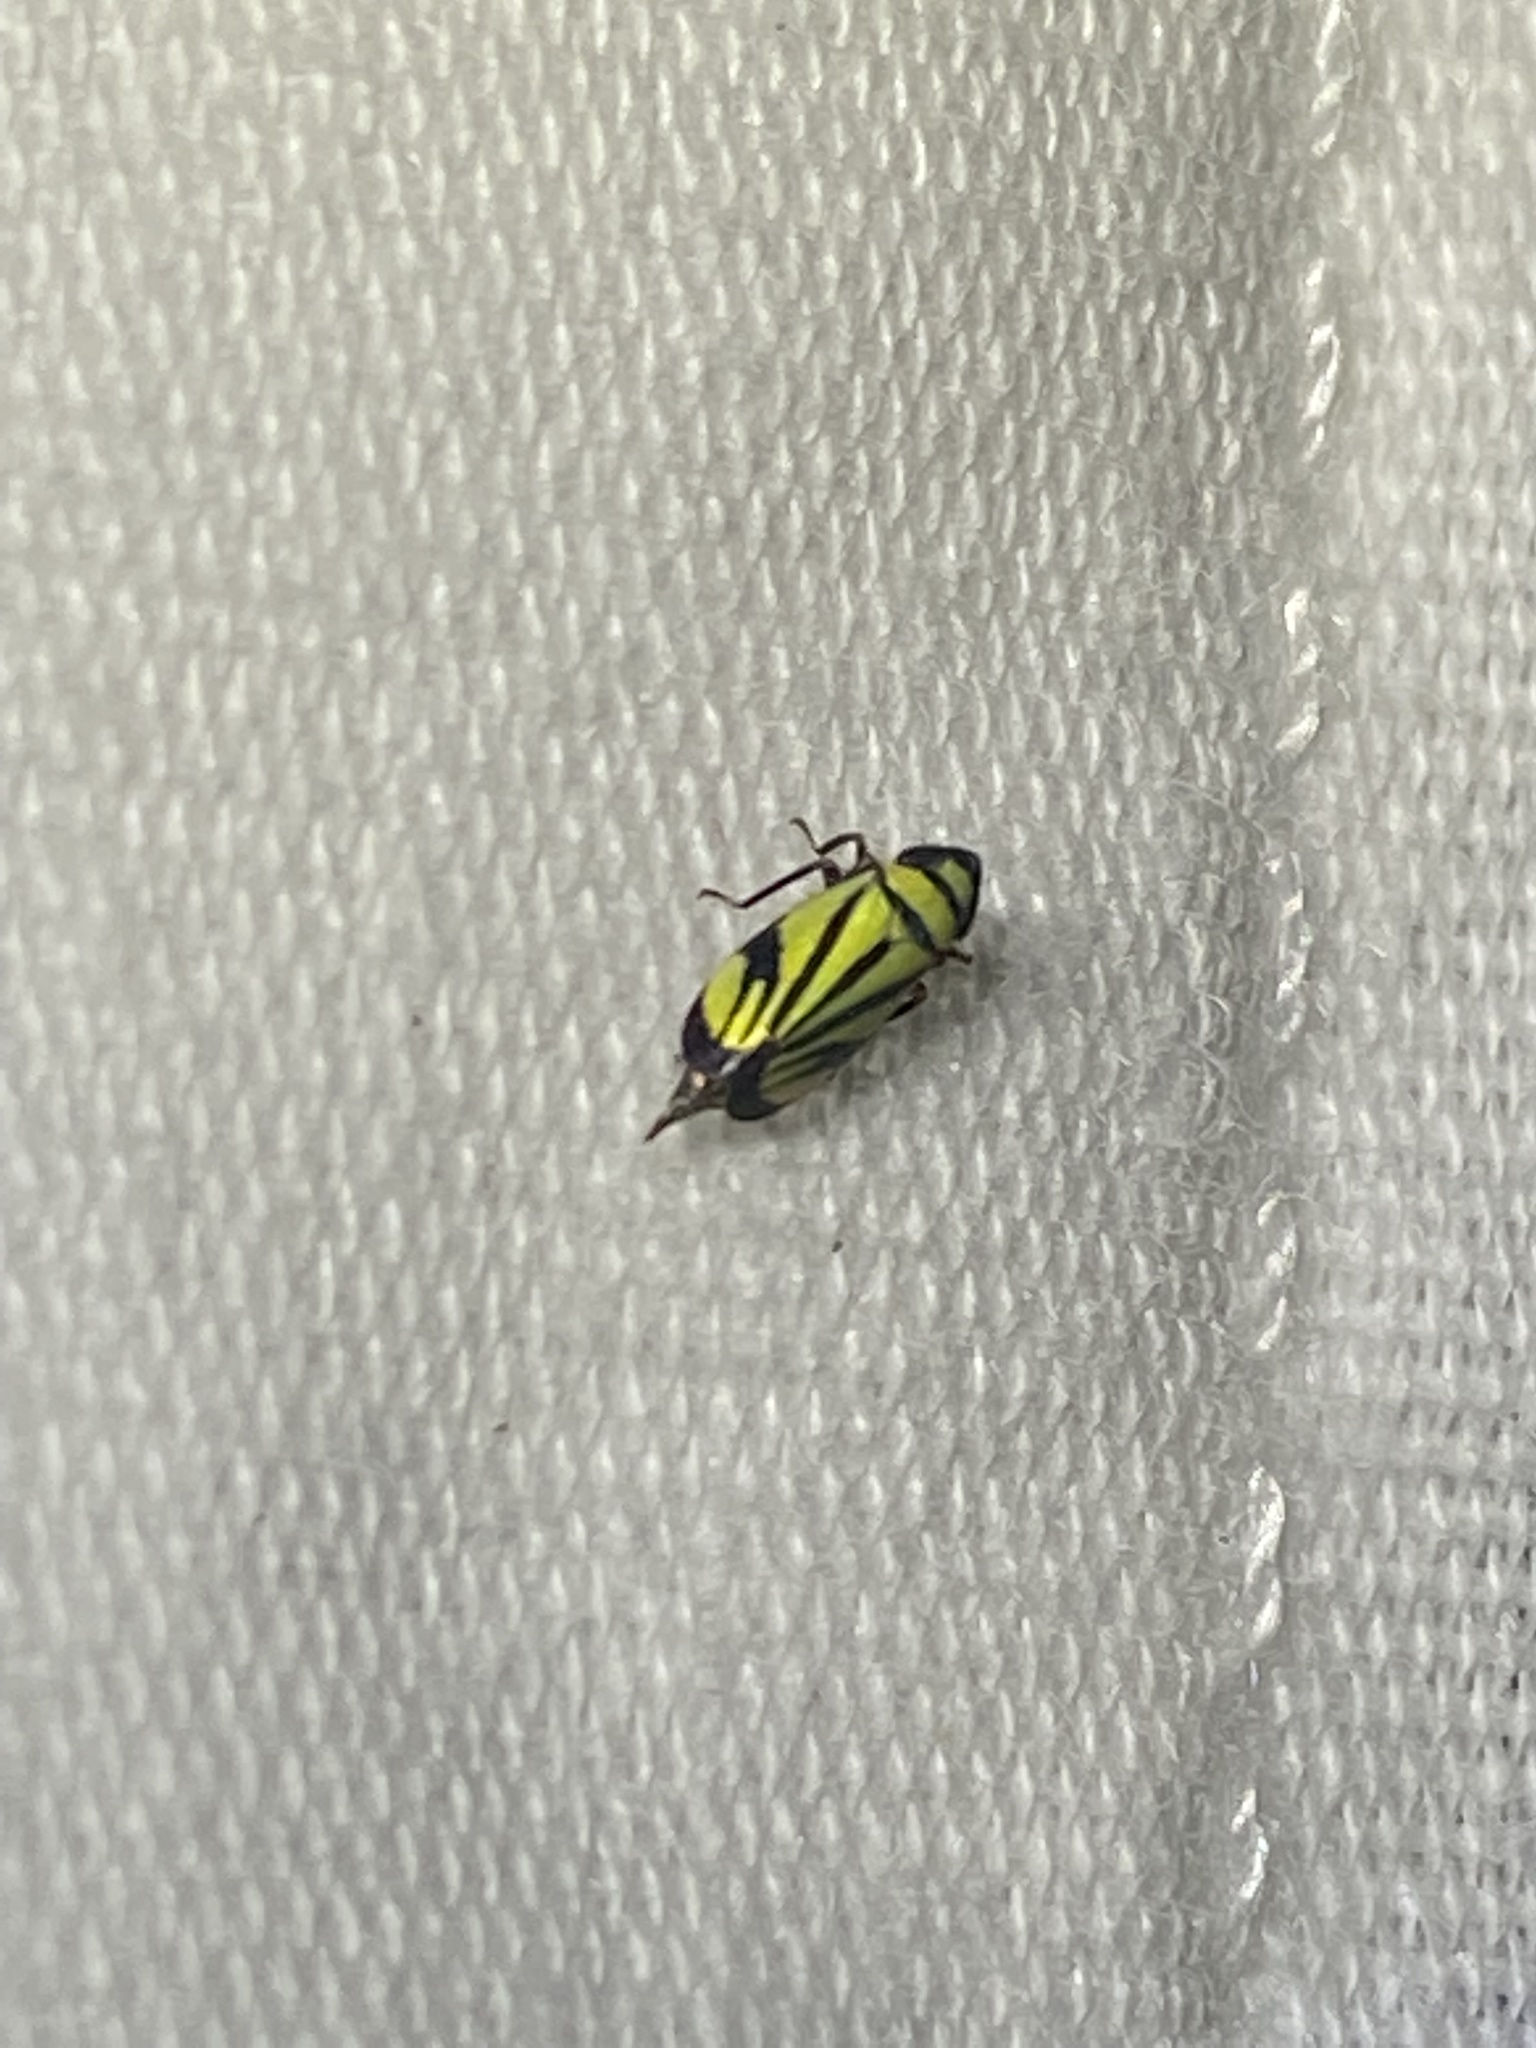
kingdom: Animalia
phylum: Arthropoda
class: Insecta
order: Hemiptera
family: Cicadellidae
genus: Stirellus
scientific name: Stirellus bicolor
